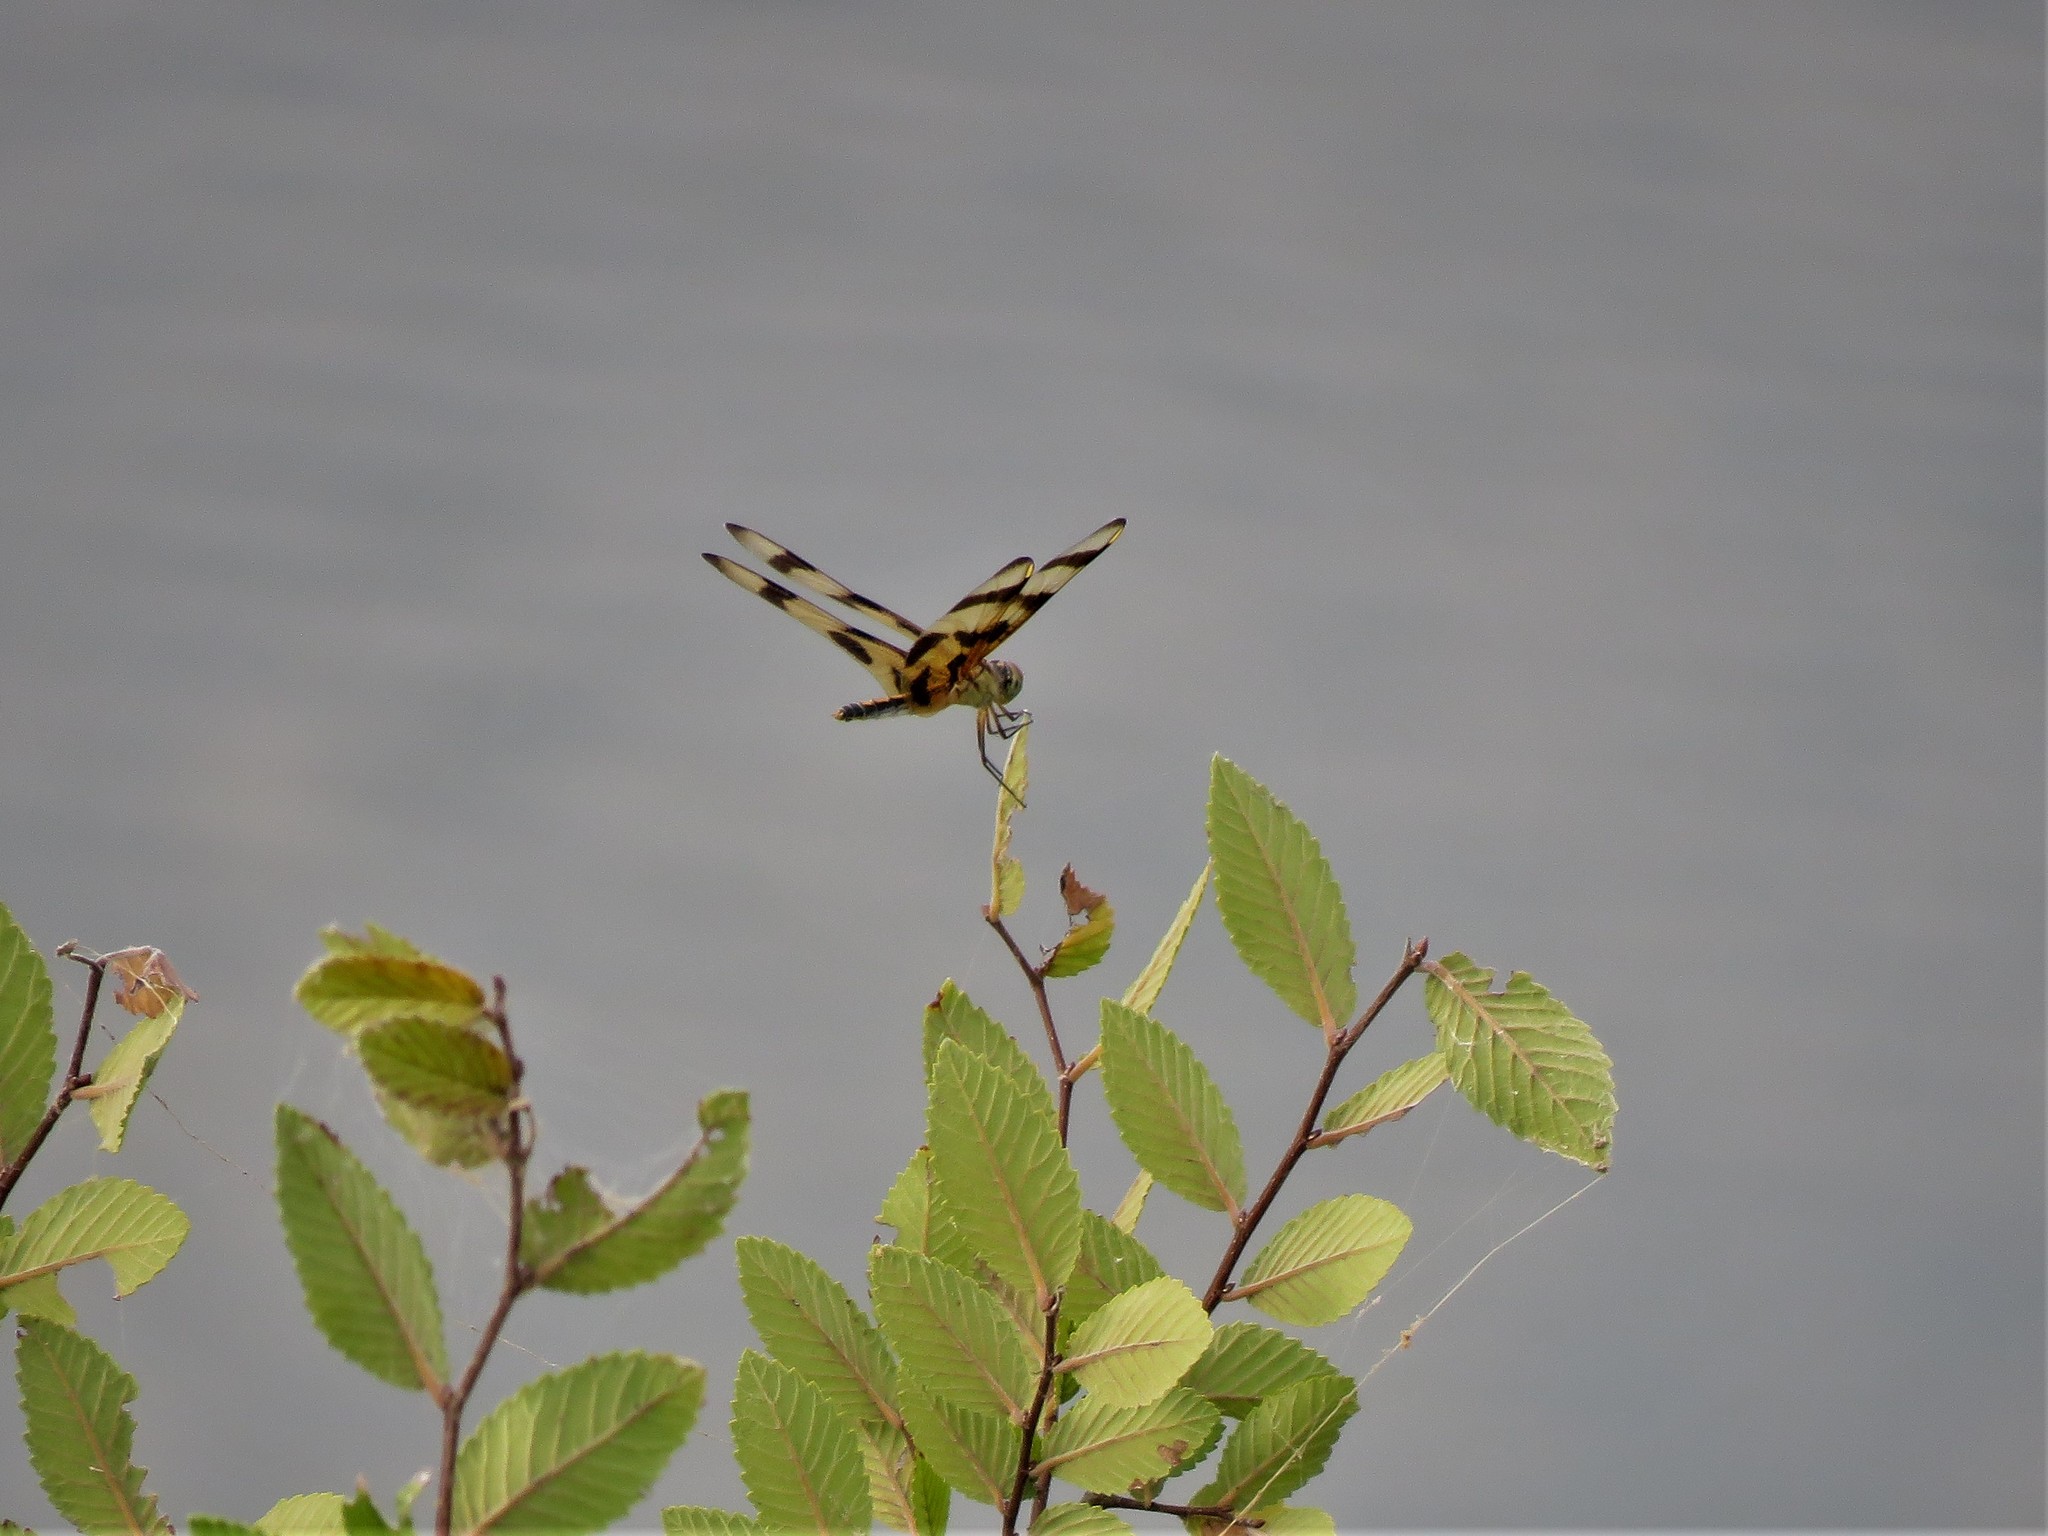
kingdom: Animalia
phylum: Arthropoda
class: Insecta
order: Odonata
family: Libellulidae
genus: Celithemis
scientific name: Celithemis eponina
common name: Halloween pennant
